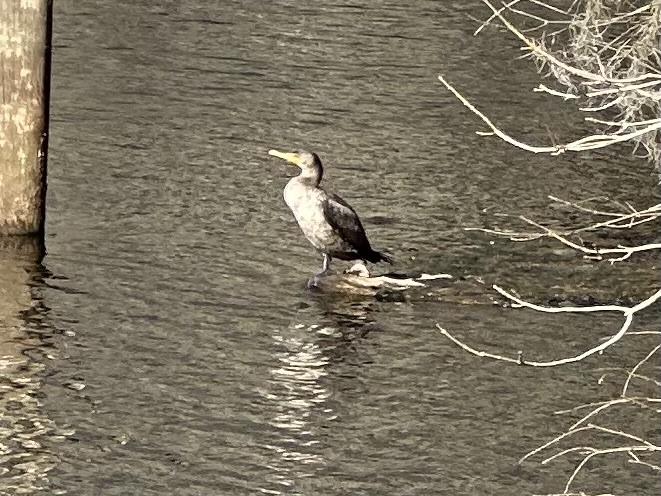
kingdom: Animalia
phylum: Chordata
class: Aves
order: Suliformes
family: Phalacrocoracidae
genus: Phalacrocorax
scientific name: Phalacrocorax auritus
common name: Double-crested cormorant
